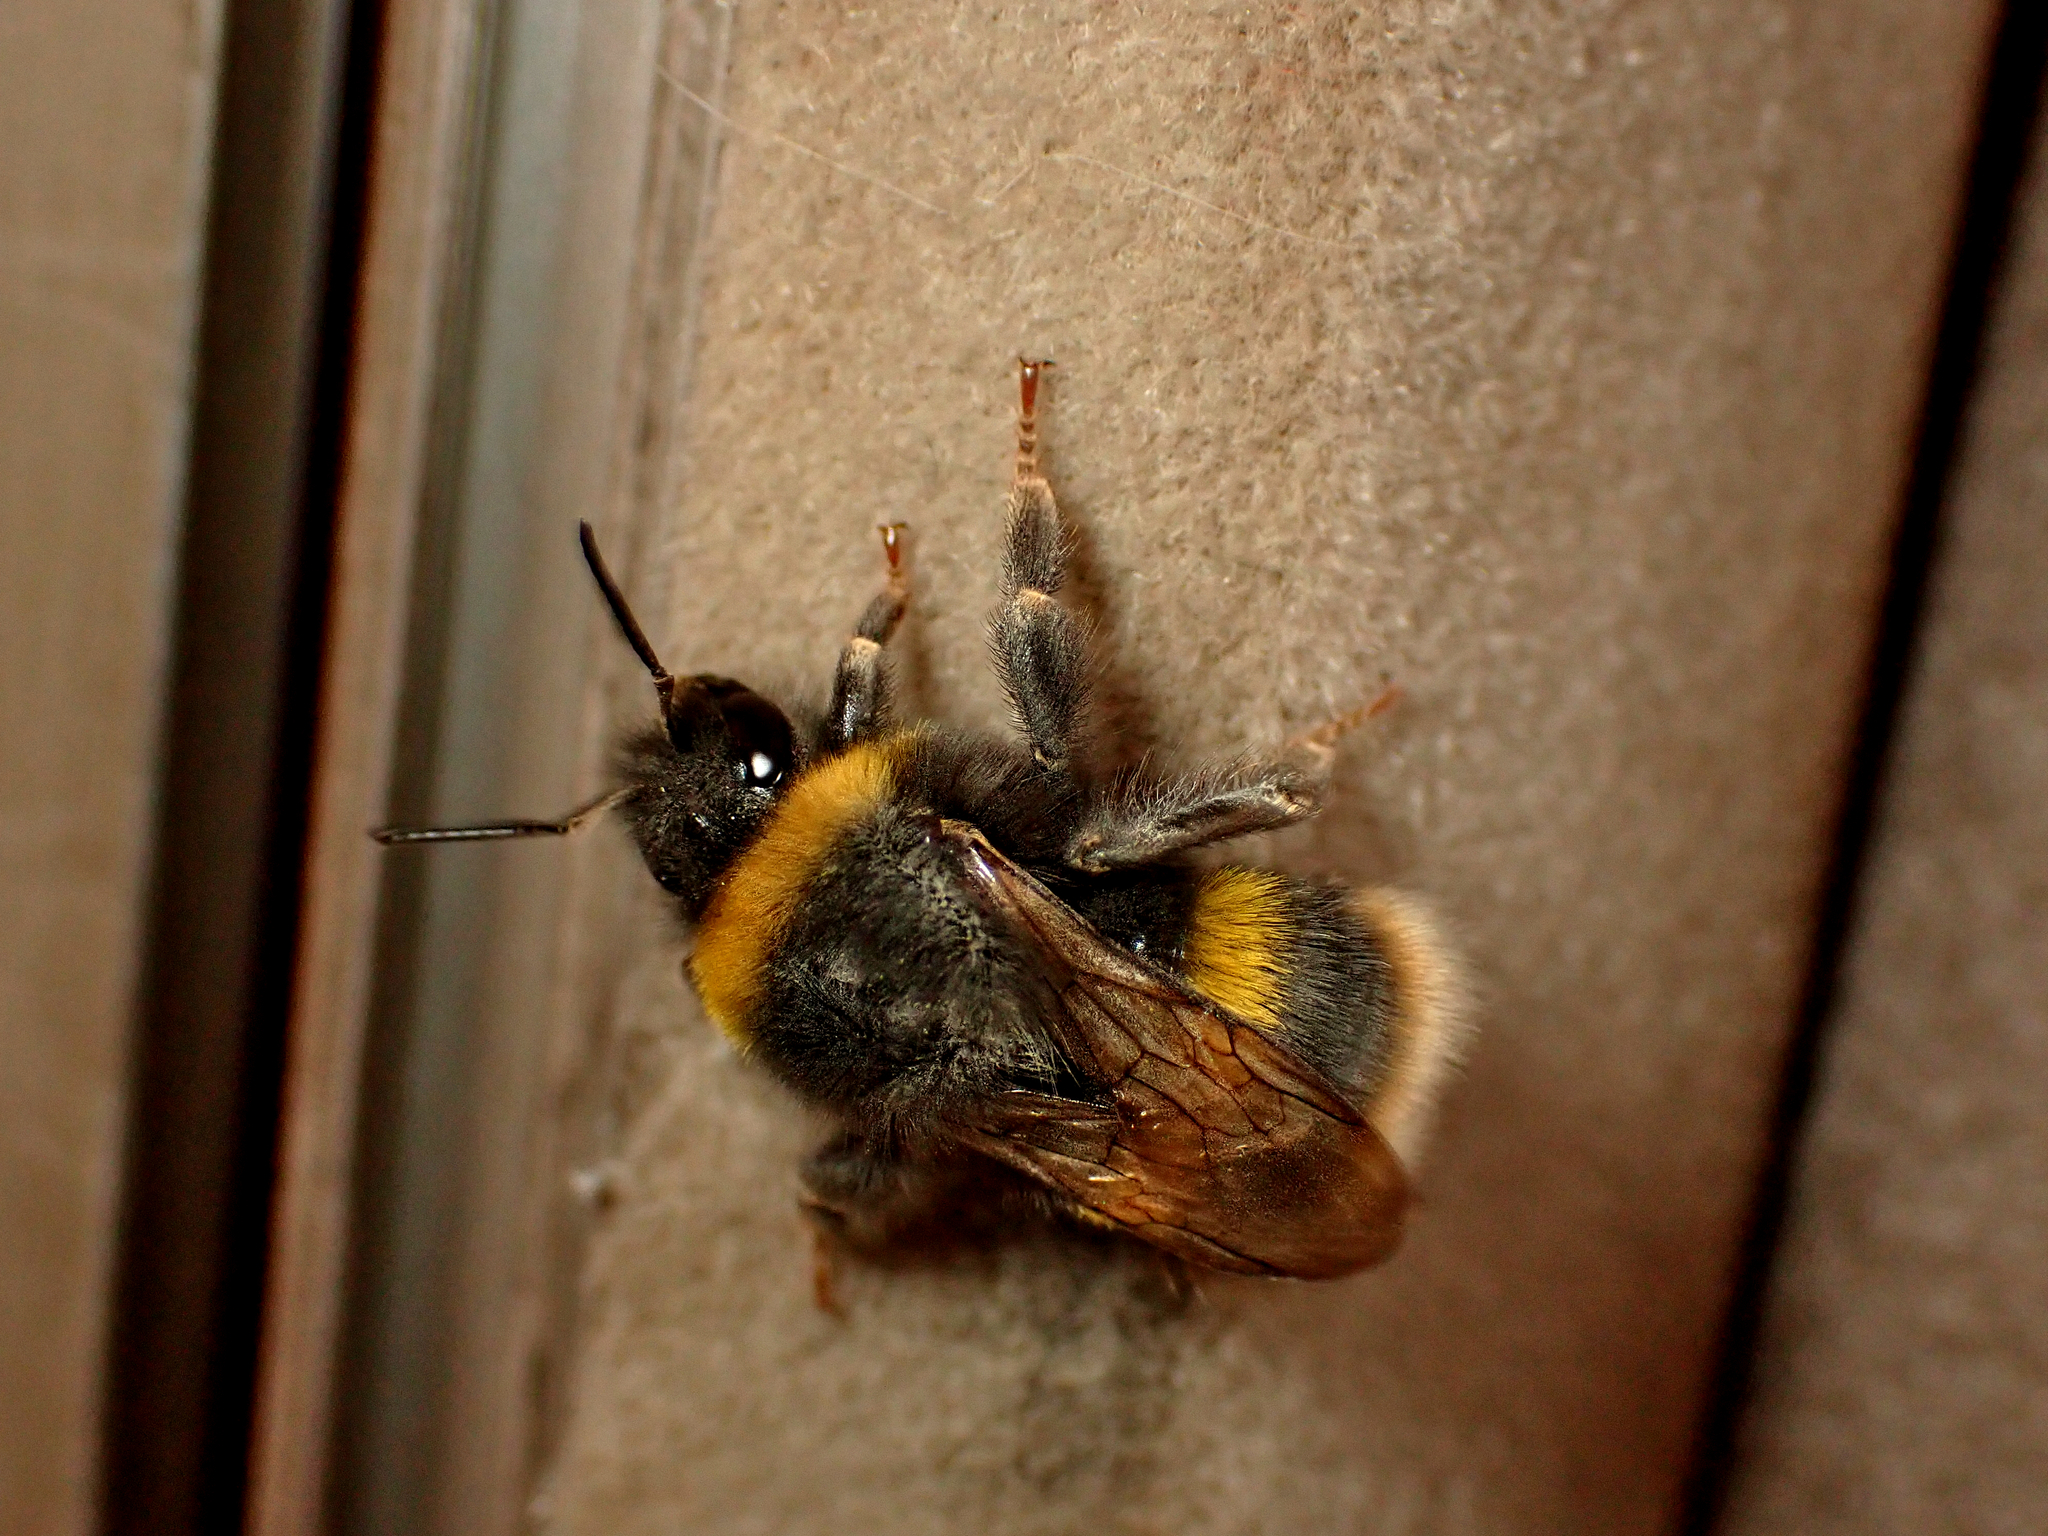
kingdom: Animalia
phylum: Arthropoda
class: Insecta
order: Hymenoptera
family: Apidae
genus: Bombus
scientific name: Bombus terrestris
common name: Buff-tailed bumblebee
